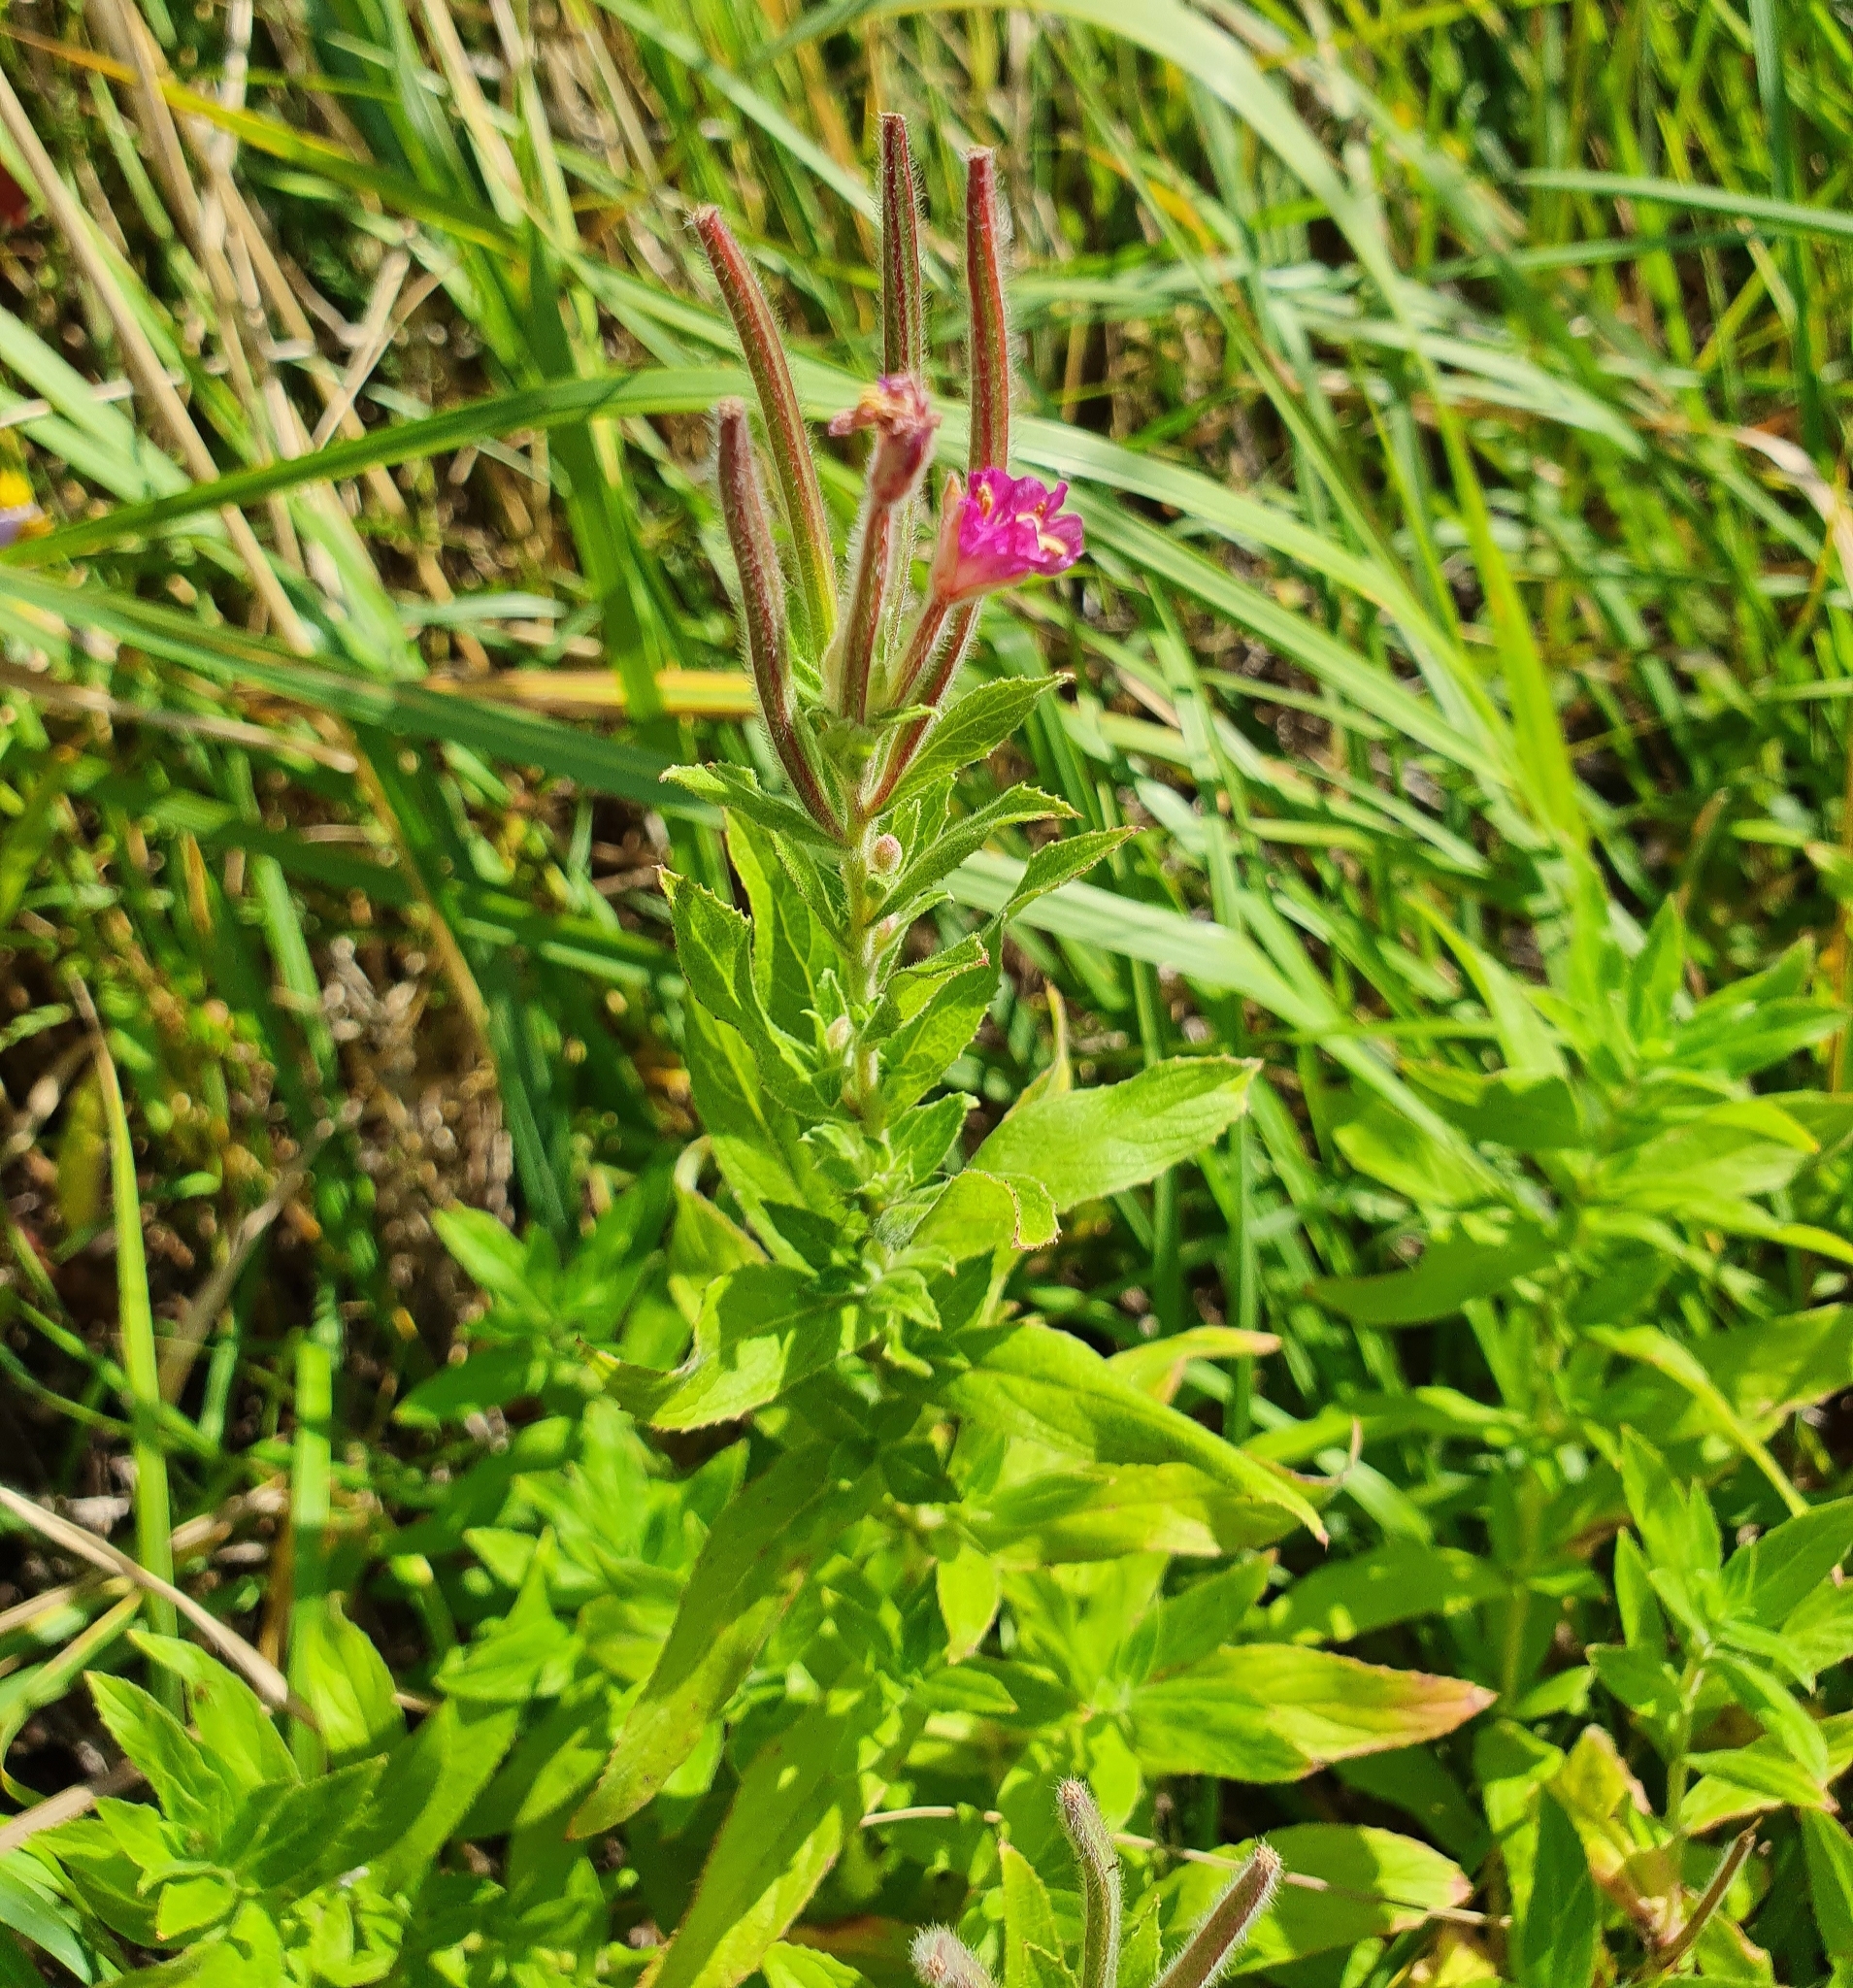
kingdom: Plantae
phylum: Tracheophyta
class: Magnoliopsida
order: Myrtales
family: Onagraceae
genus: Epilobium
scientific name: Epilobium hirsutum
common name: Great willowherb
